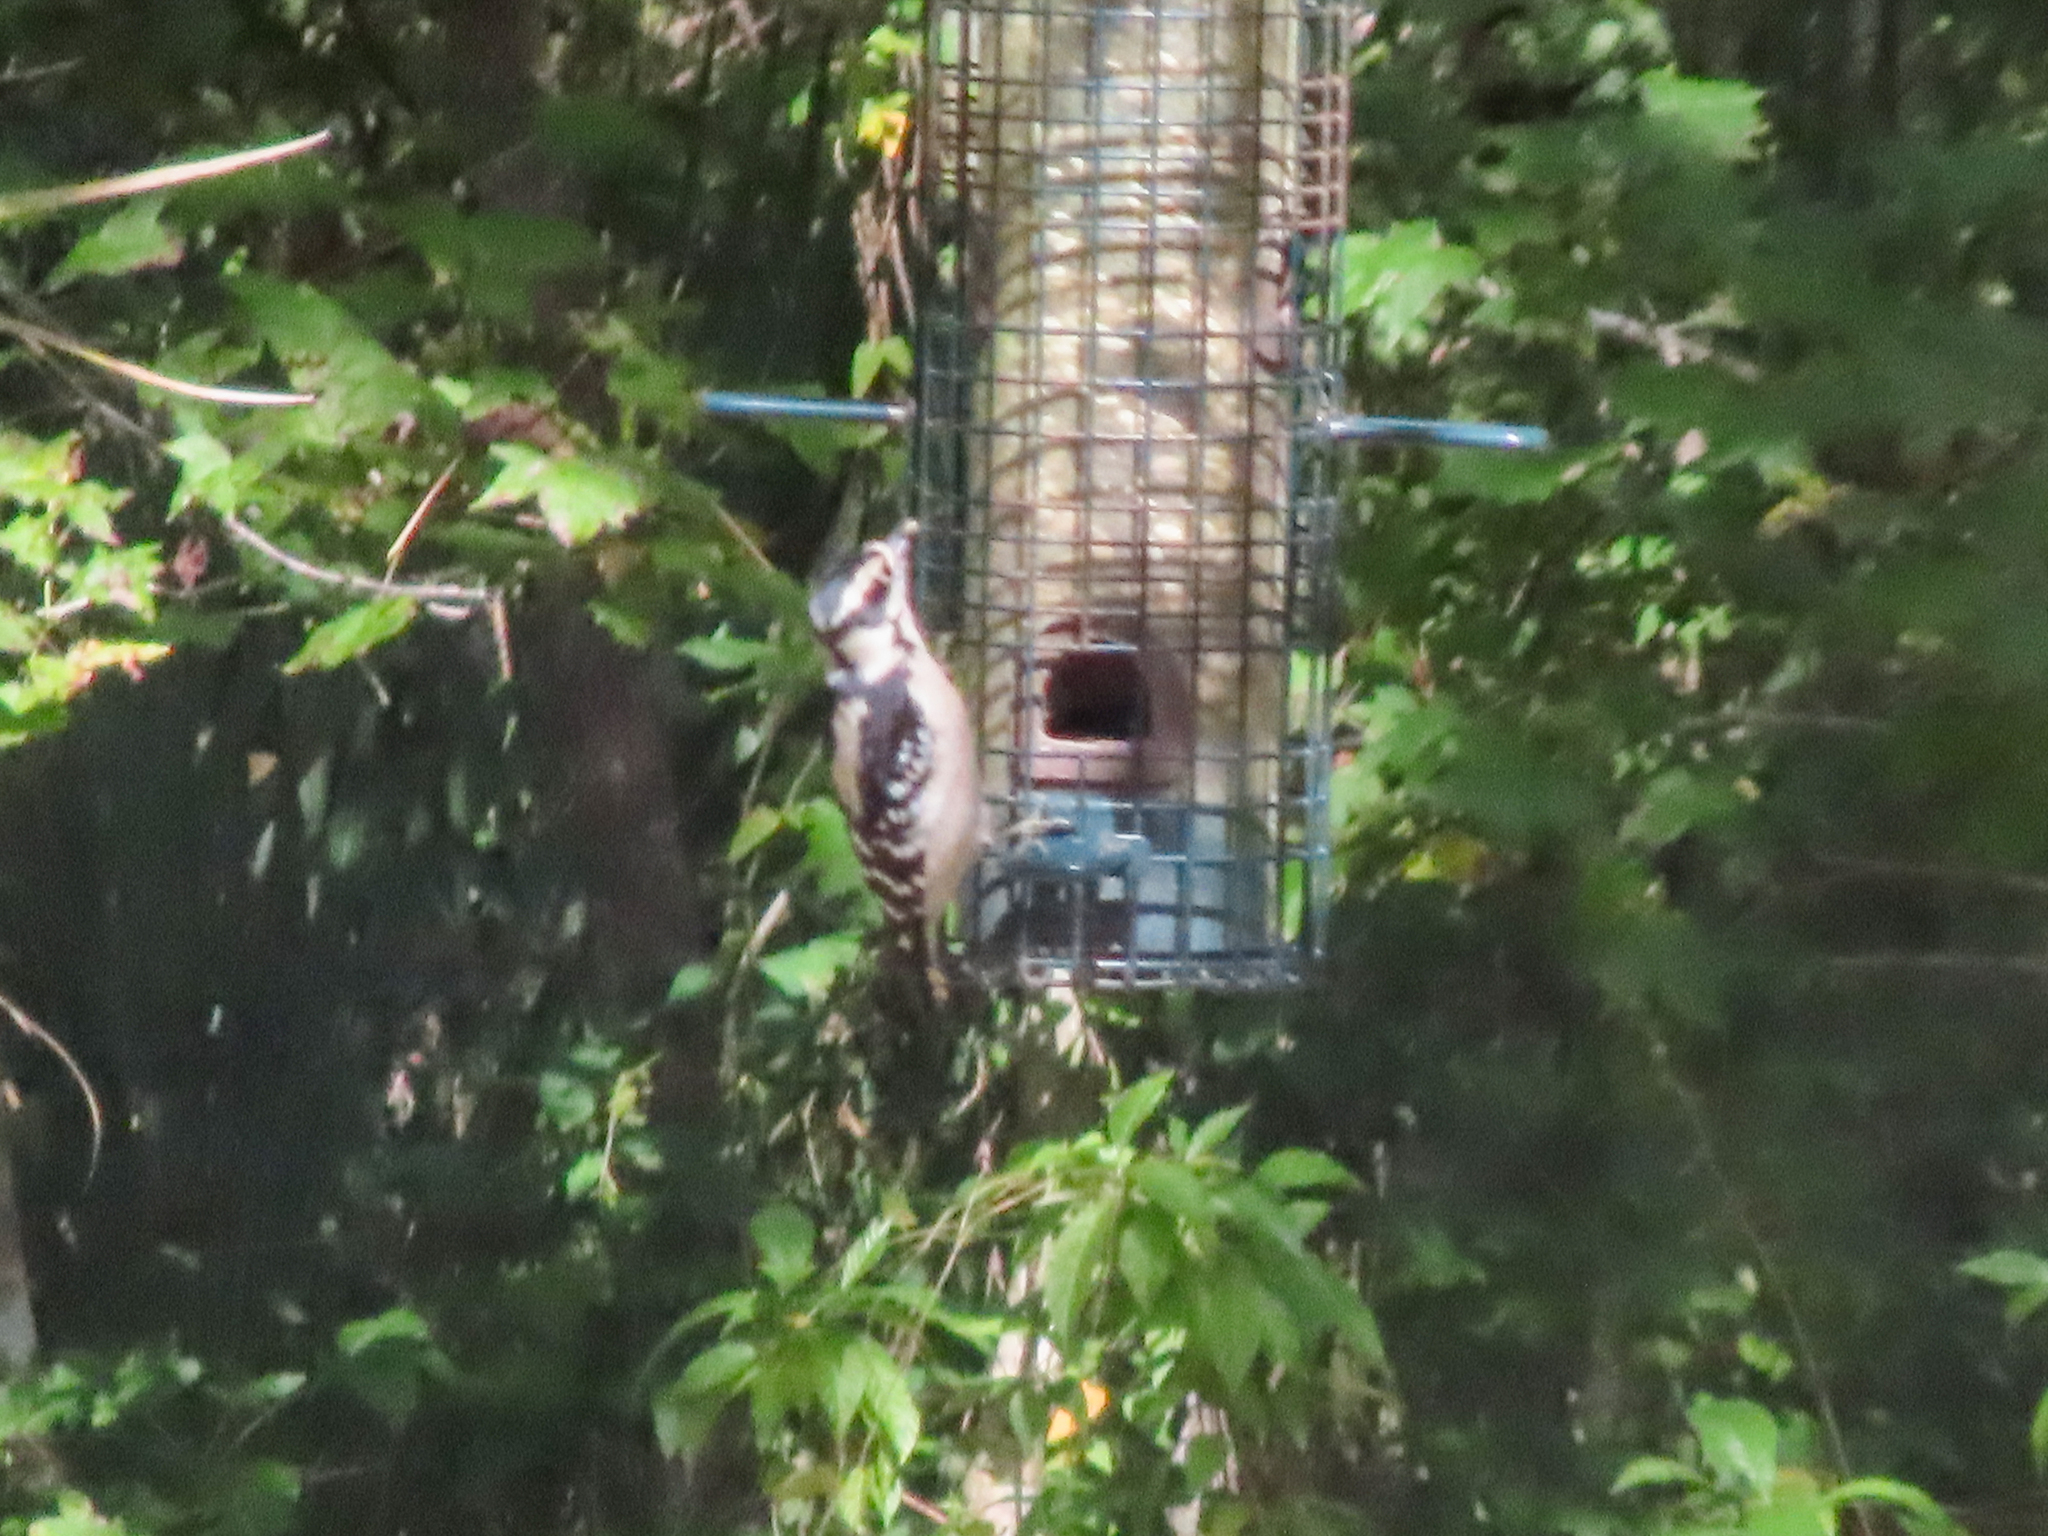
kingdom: Animalia
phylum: Chordata
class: Aves
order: Piciformes
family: Picidae
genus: Dryobates
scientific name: Dryobates pubescens
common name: Downy woodpecker
